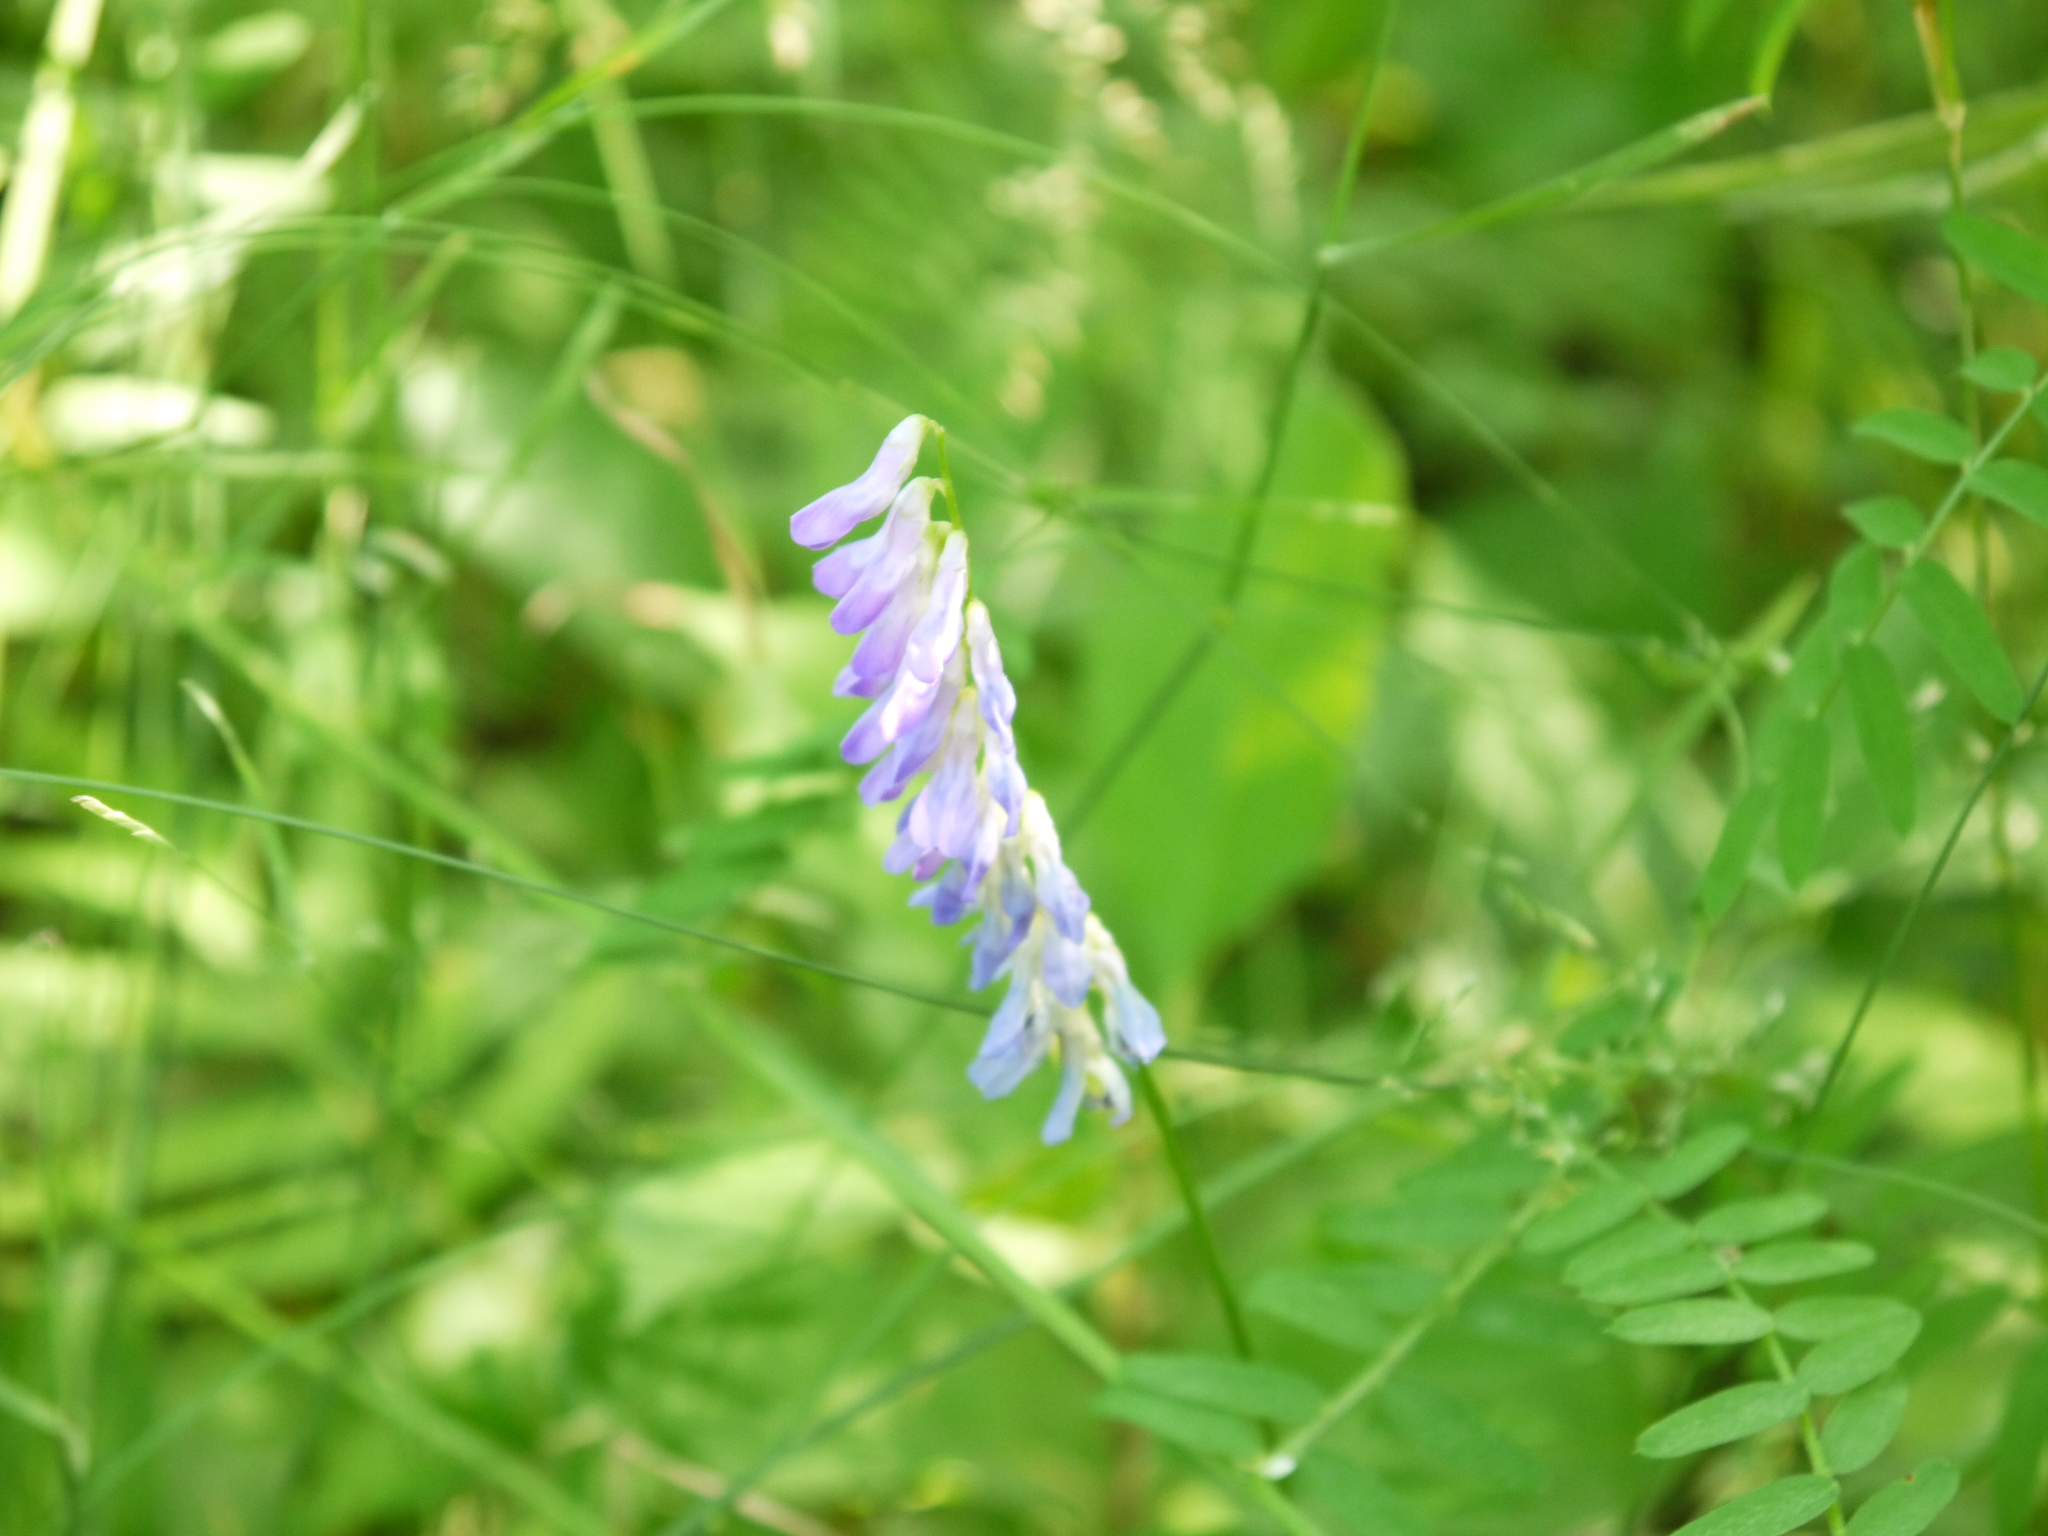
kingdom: Plantae
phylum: Tracheophyta
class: Magnoliopsida
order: Fabales
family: Fabaceae
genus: Vicia
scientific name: Vicia cracca
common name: Bird vetch
